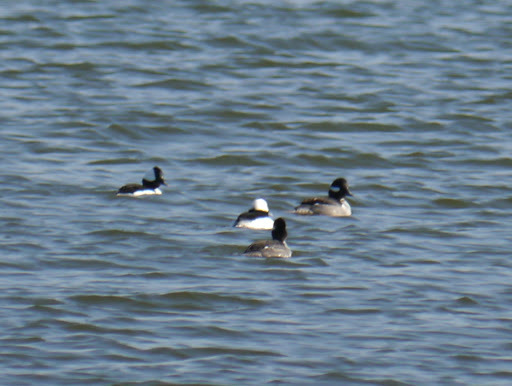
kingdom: Animalia
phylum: Chordata
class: Aves
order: Anseriformes
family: Anatidae
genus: Bucephala
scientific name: Bucephala albeola
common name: Bufflehead
